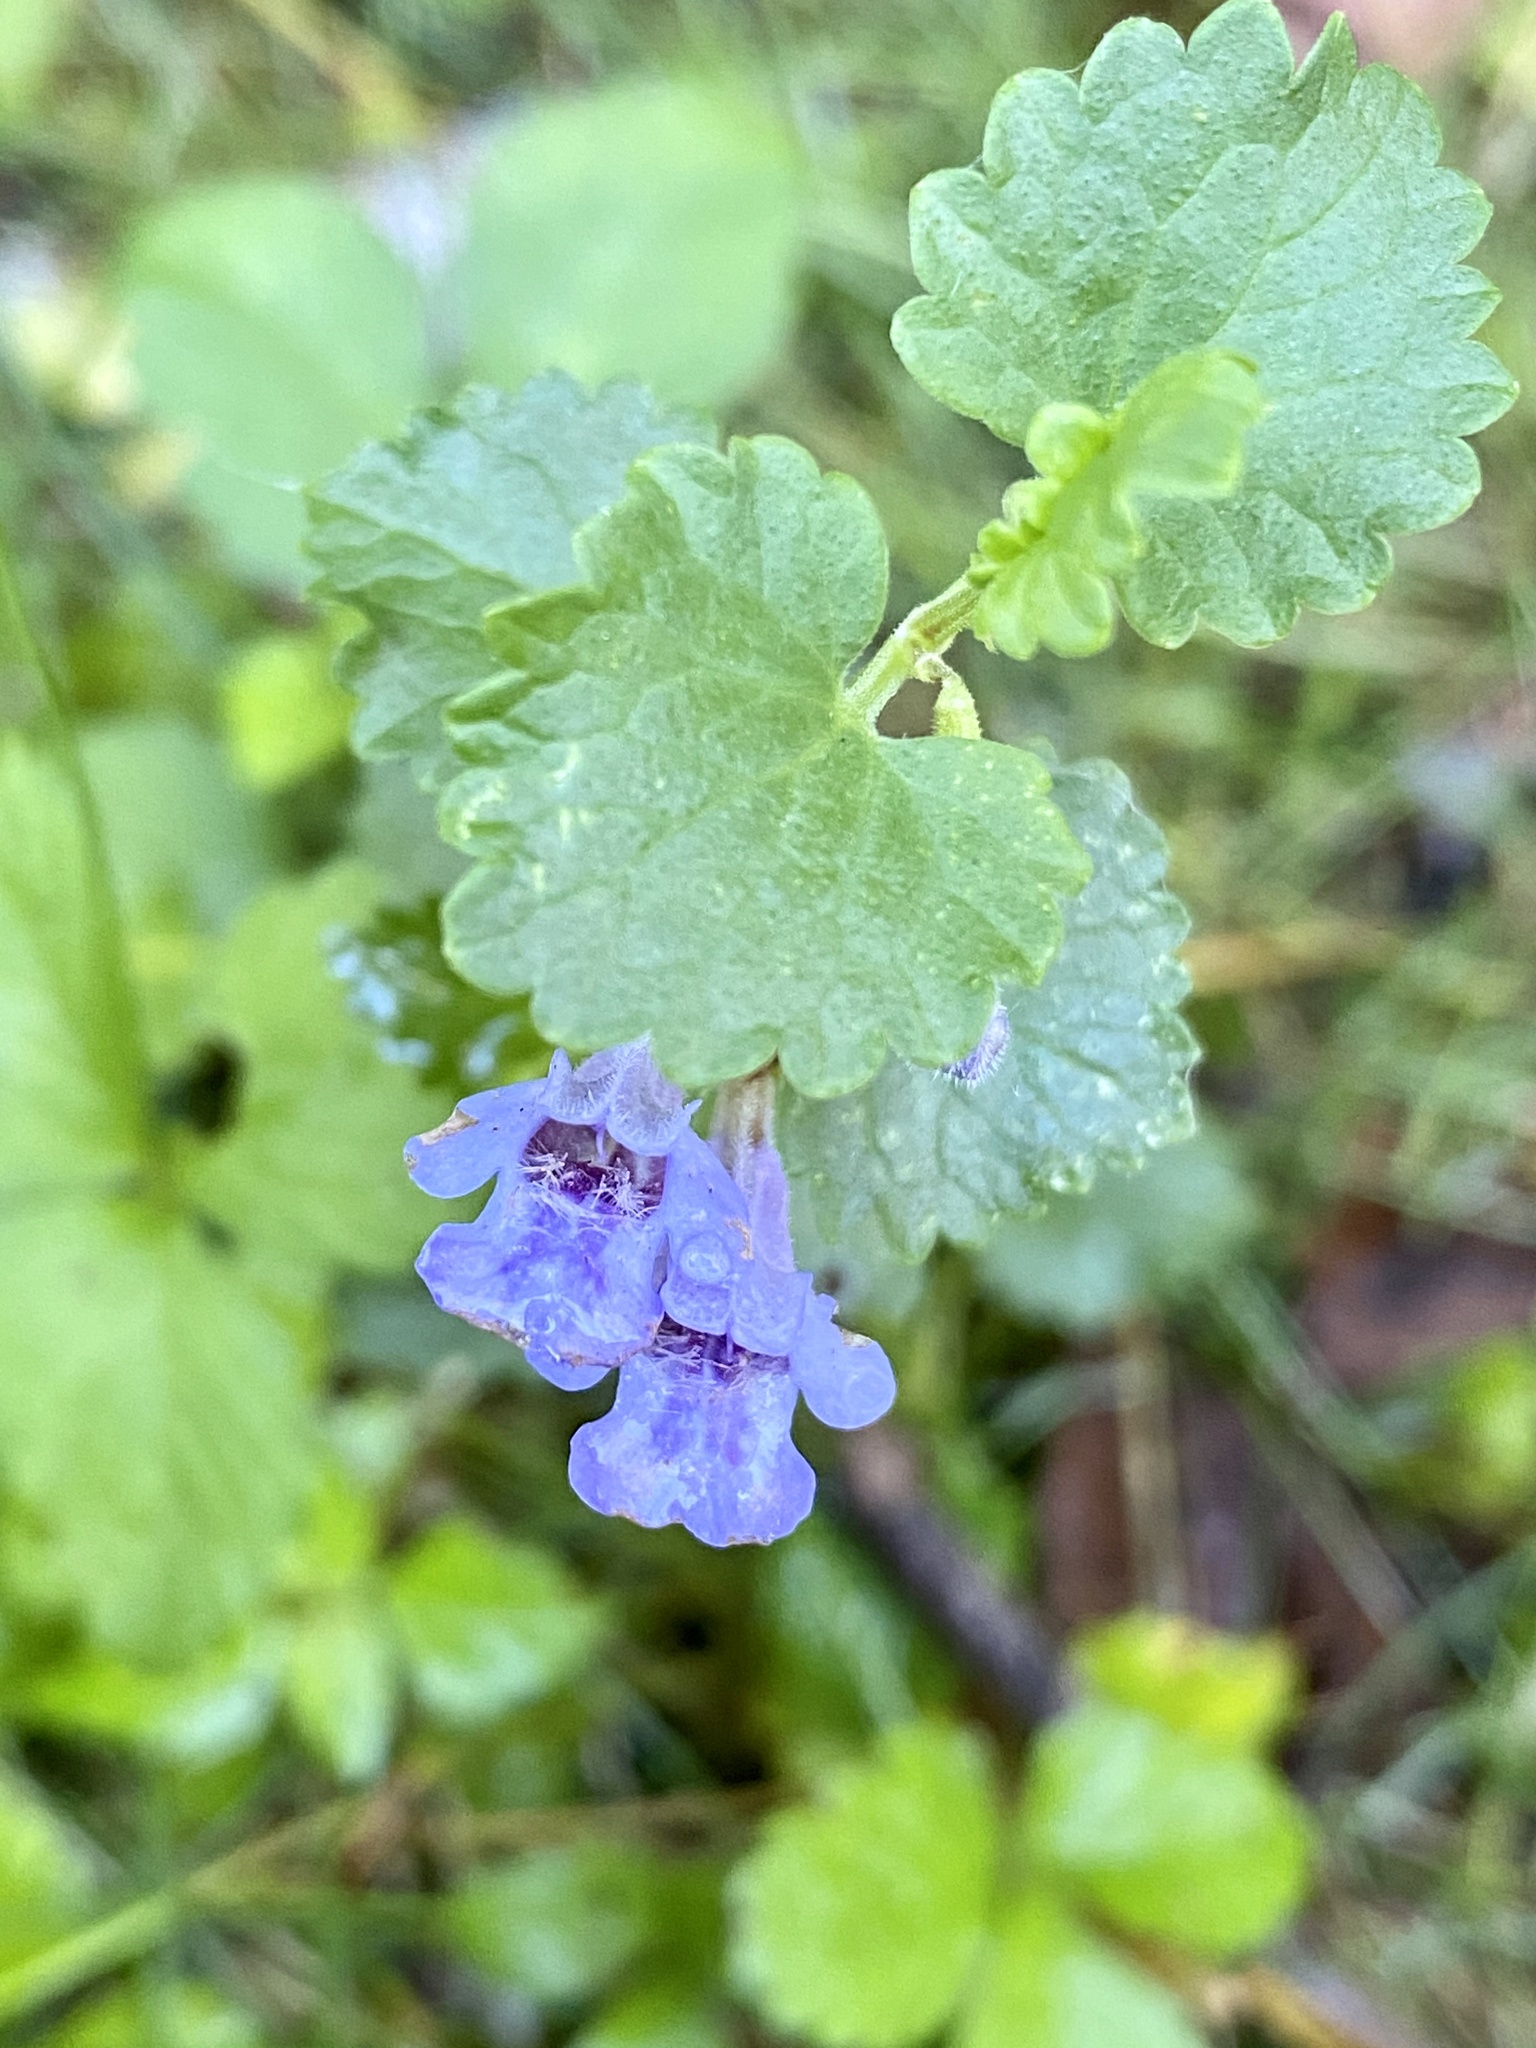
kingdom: Plantae
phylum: Tracheophyta
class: Magnoliopsida
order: Lamiales
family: Lamiaceae
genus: Glechoma
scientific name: Glechoma hederacea
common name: Ground ivy
